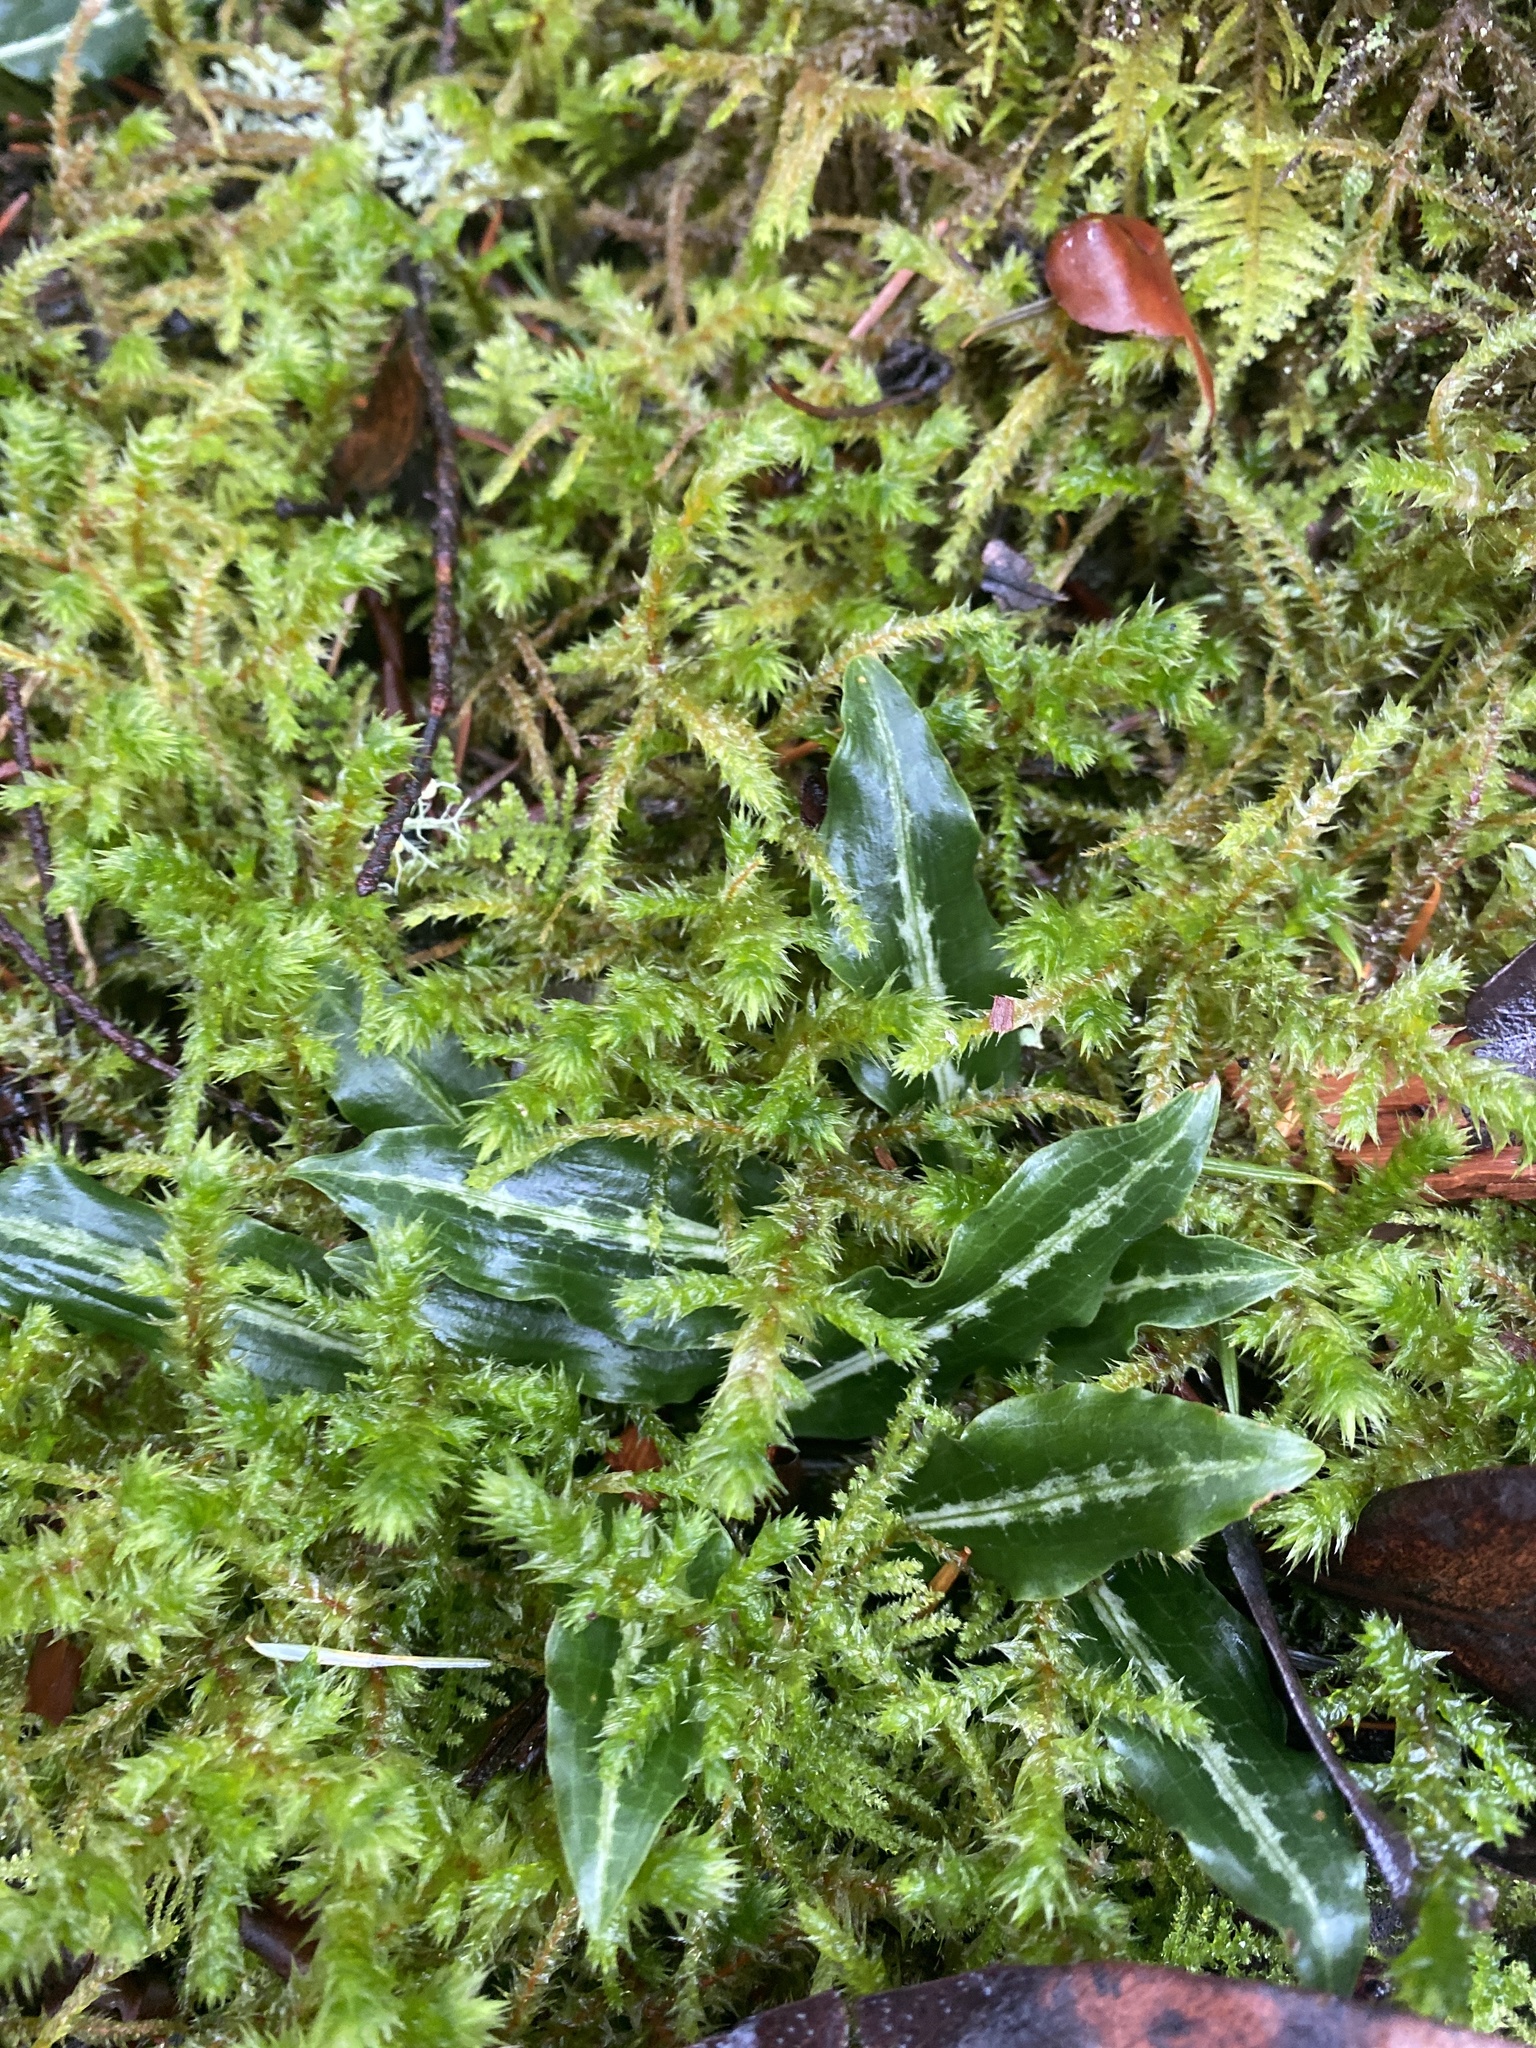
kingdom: Plantae
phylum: Tracheophyta
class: Liliopsida
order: Asparagales
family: Orchidaceae
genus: Goodyera
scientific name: Goodyera oblongifolia
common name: Giant rattlesnake-plantain
